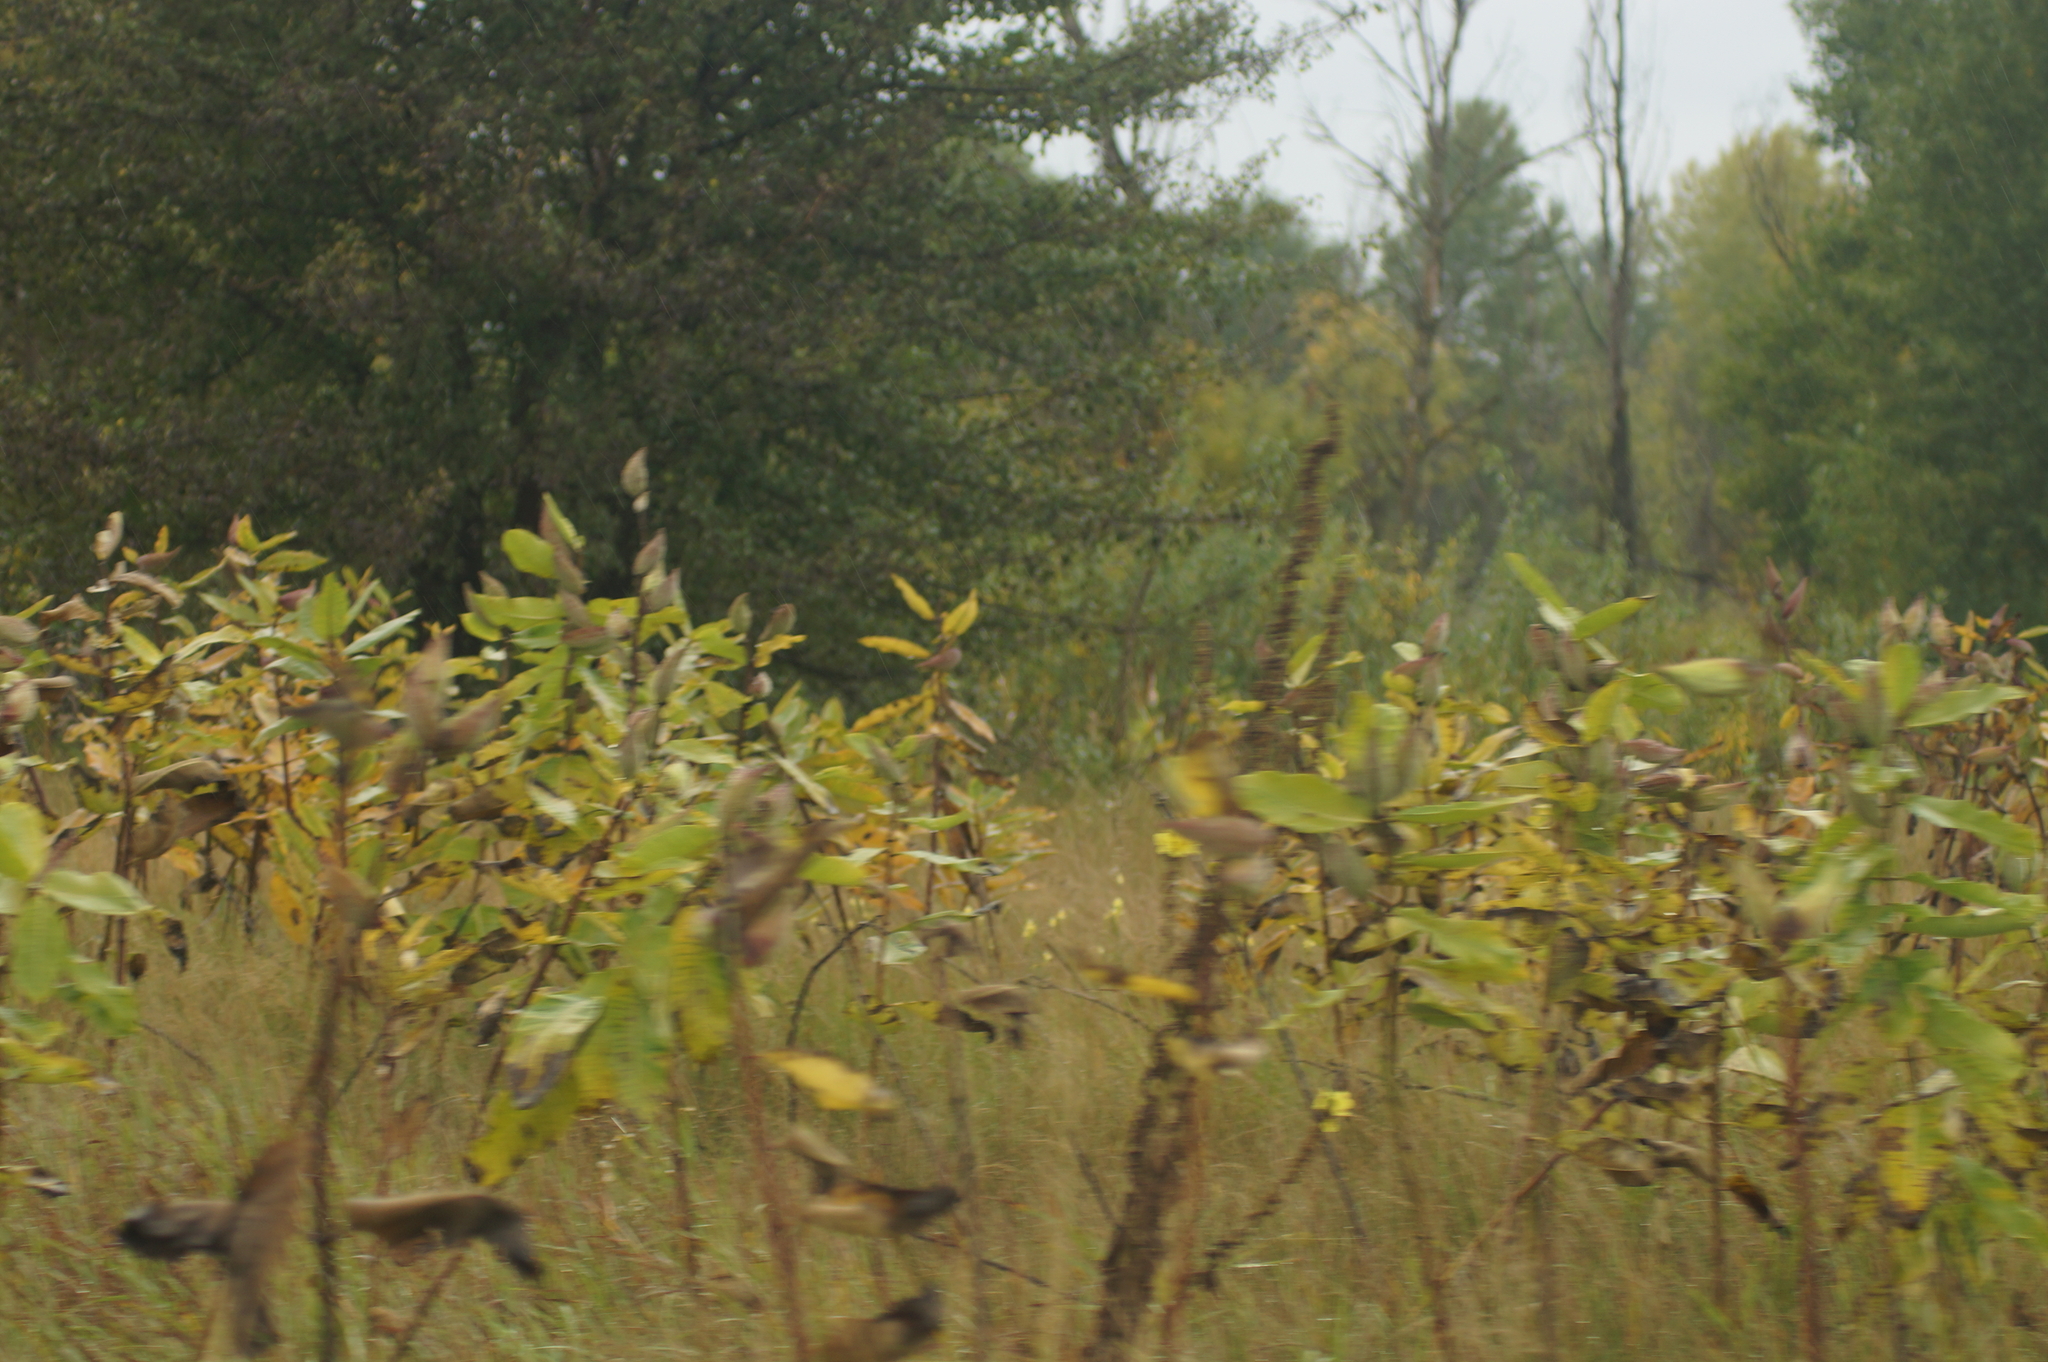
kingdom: Plantae
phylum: Tracheophyta
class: Magnoliopsida
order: Gentianales
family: Apocynaceae
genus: Asclepias
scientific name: Asclepias syriaca
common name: Common milkweed
